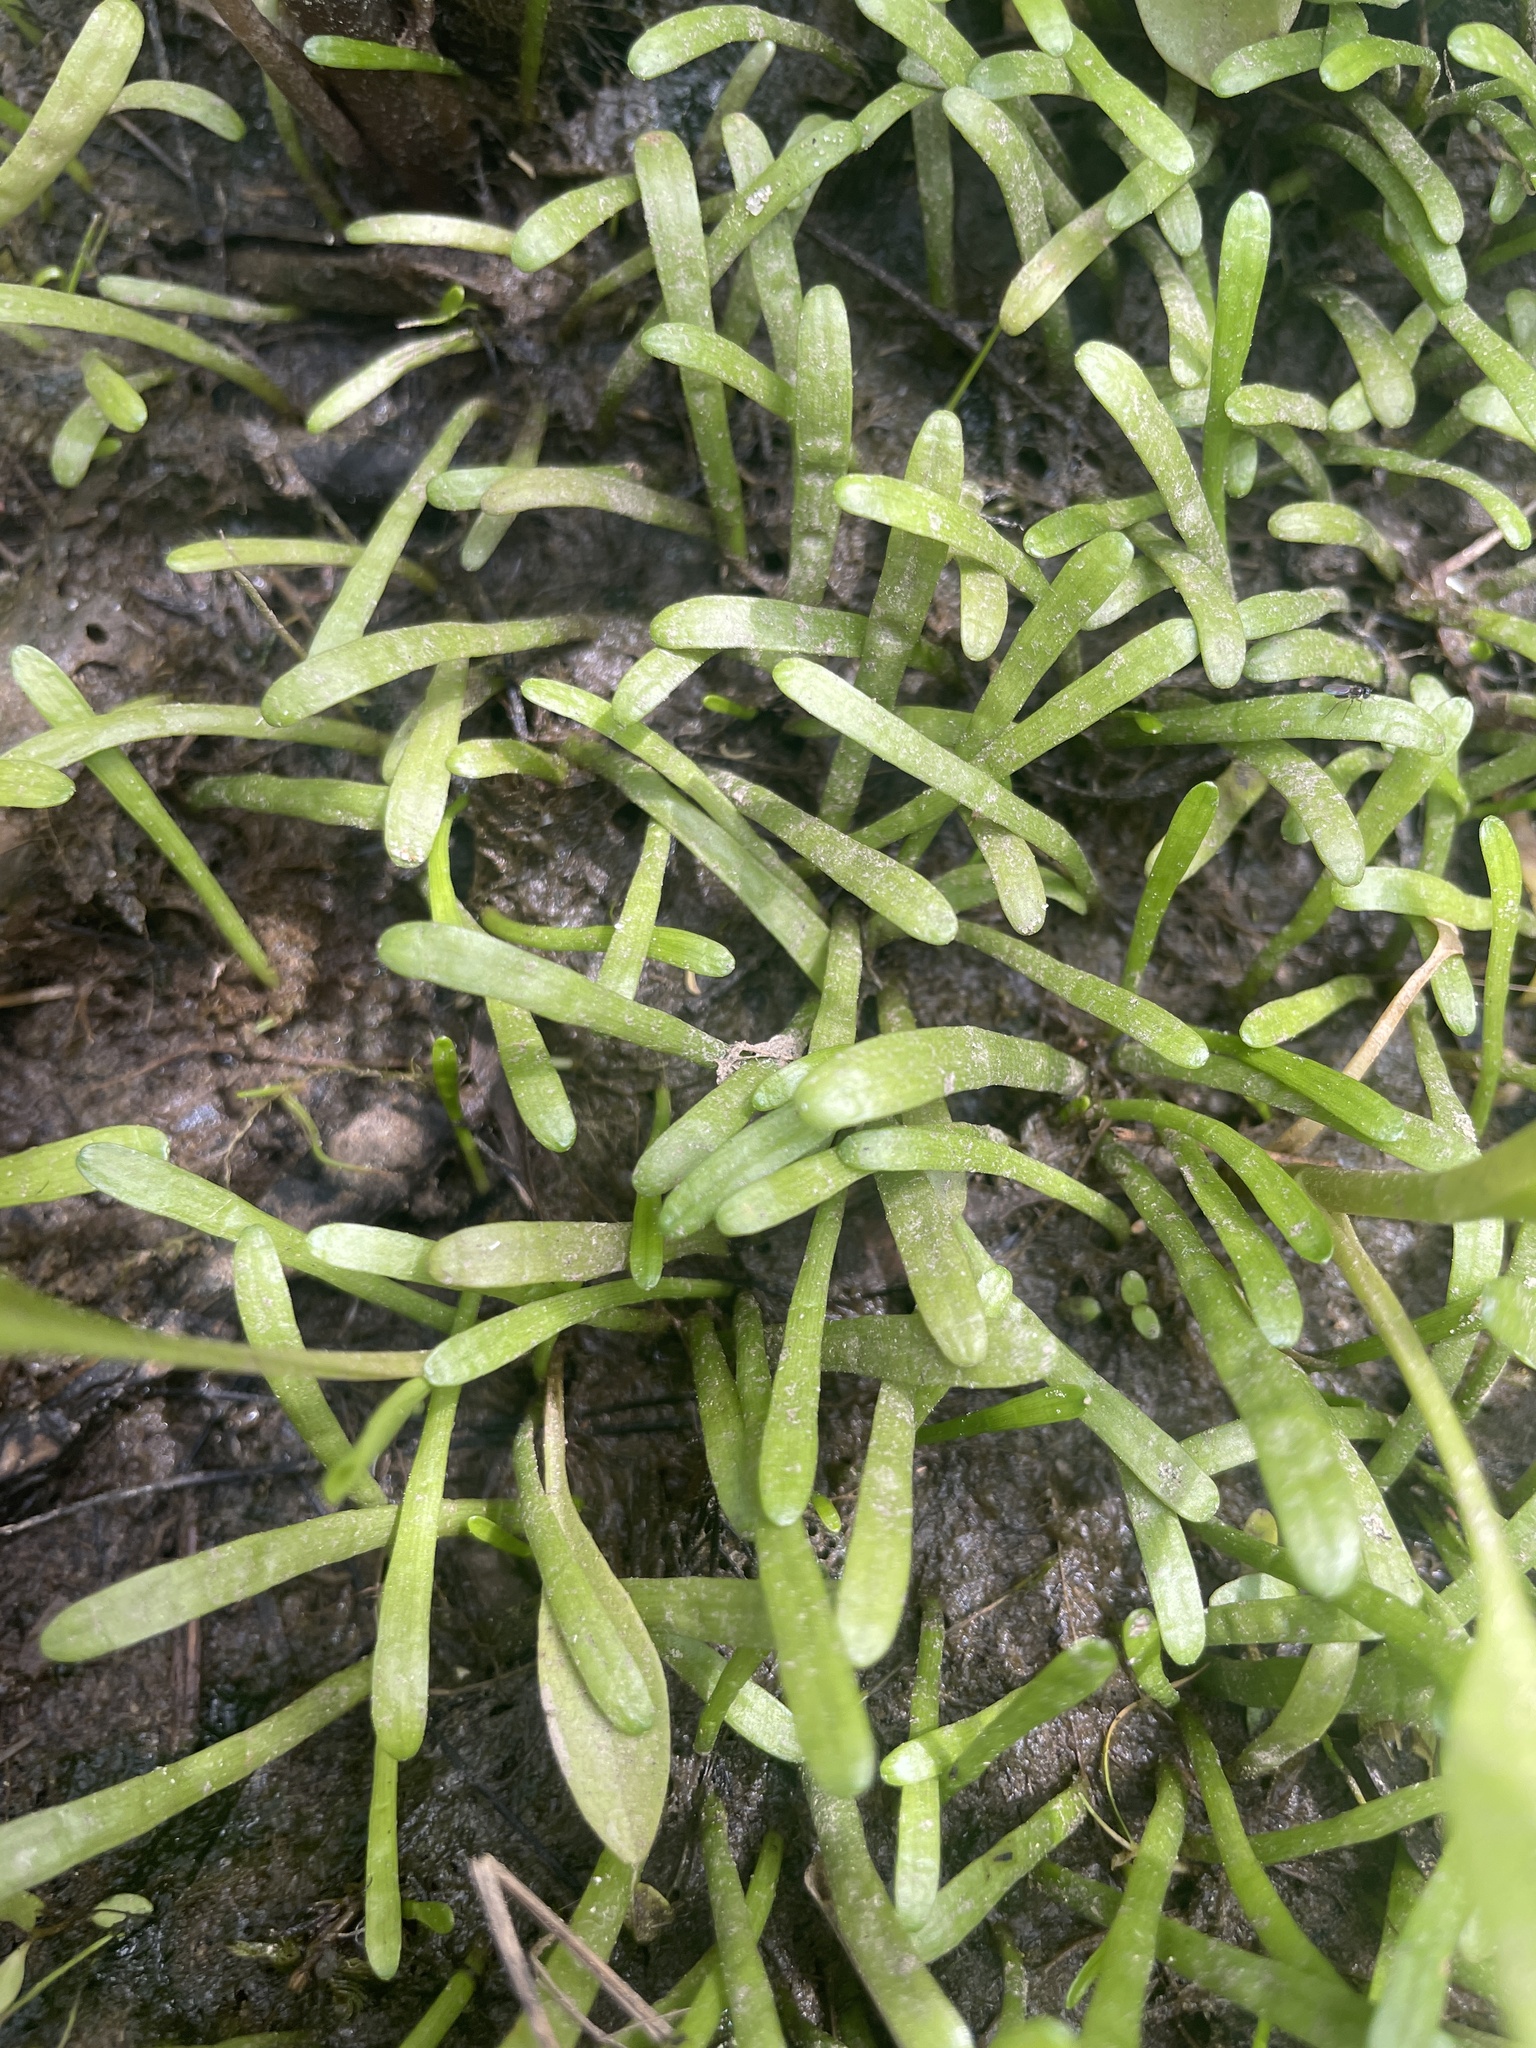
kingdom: Plantae
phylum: Tracheophyta
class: Magnoliopsida
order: Apiales
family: Apiaceae
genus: Lilaeopsis
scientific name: Lilaeopsis chinensis
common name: Eastern grasswort
